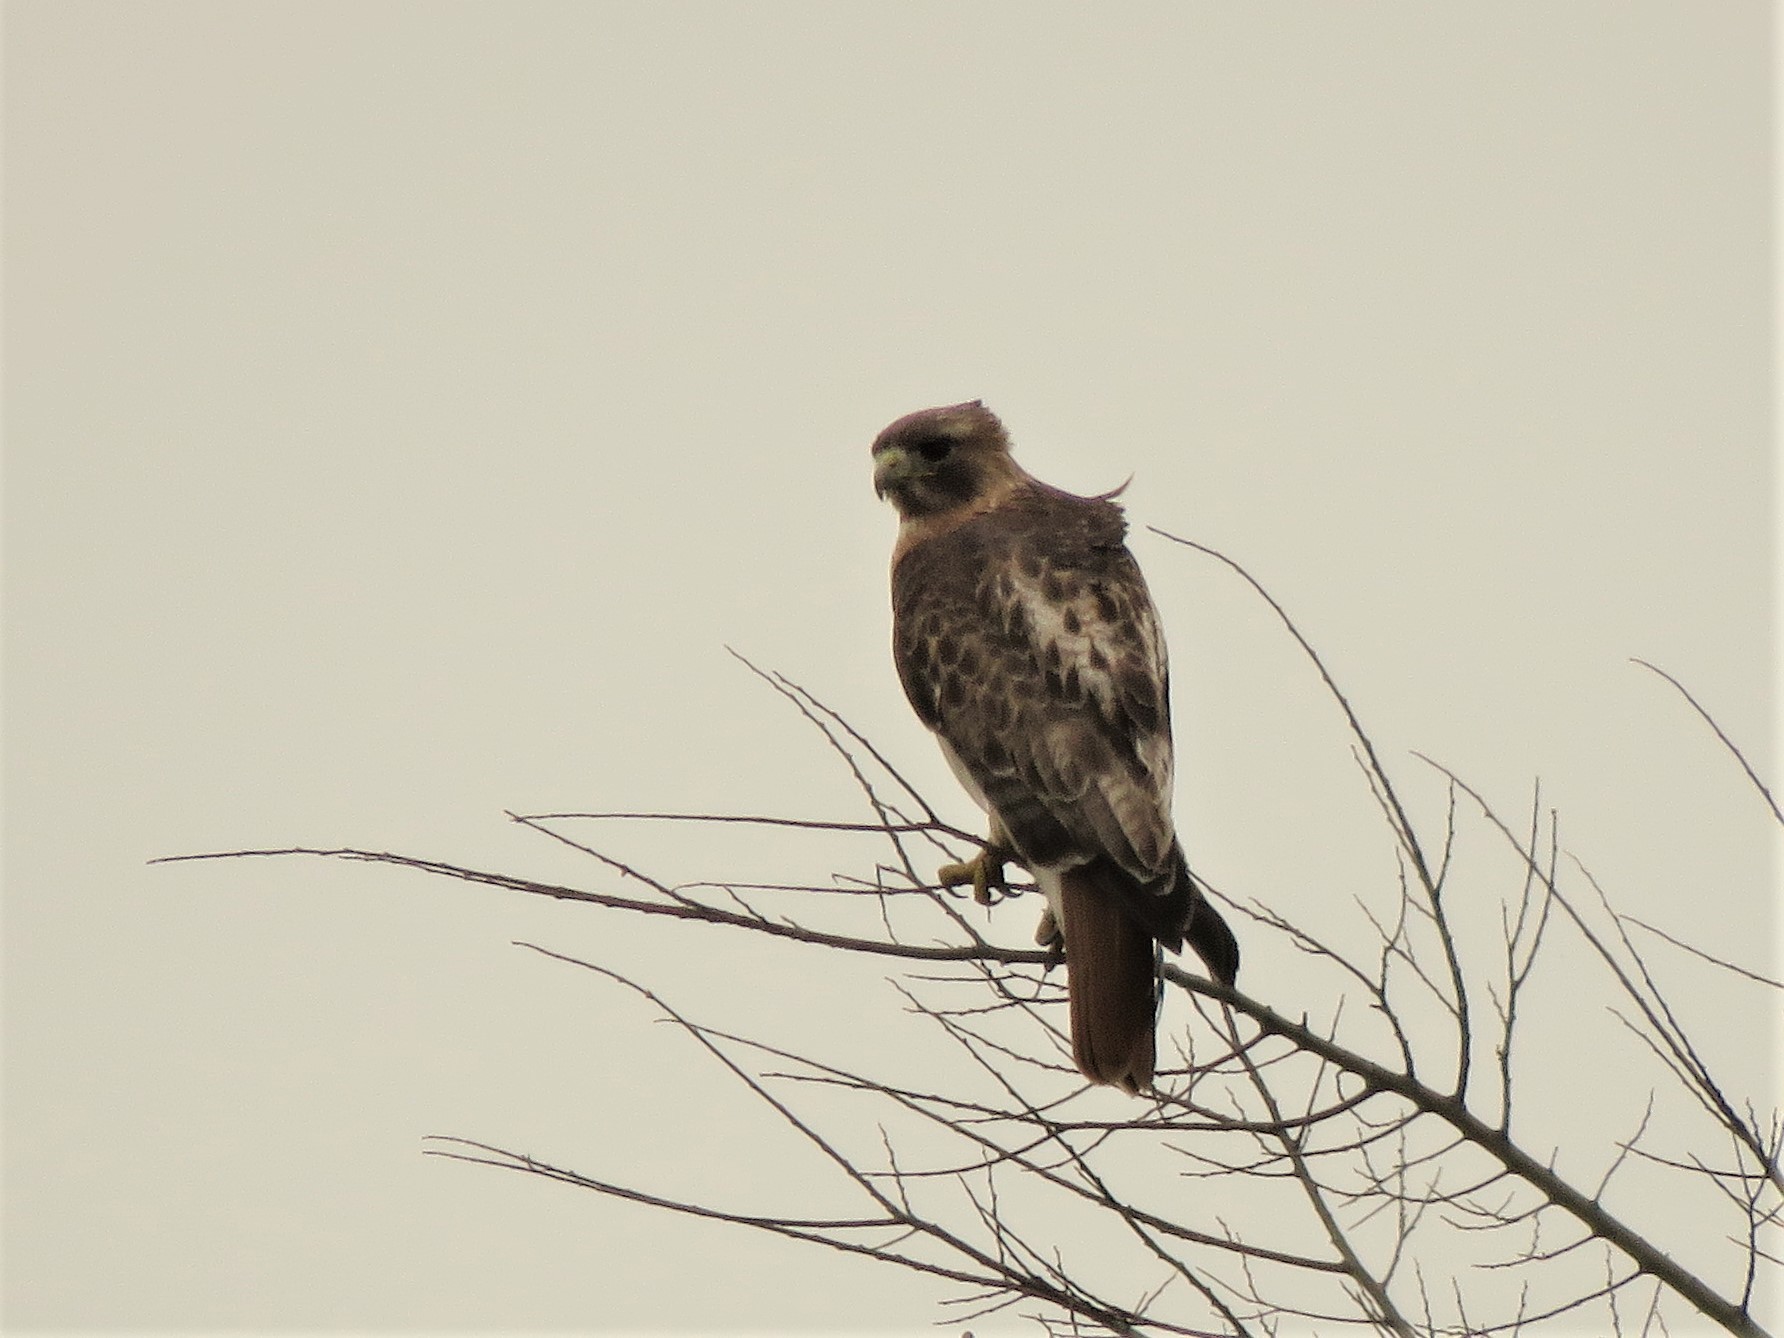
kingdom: Animalia
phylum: Chordata
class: Aves
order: Accipitriformes
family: Accipitridae
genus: Buteo
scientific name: Buteo jamaicensis
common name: Red-tailed hawk
